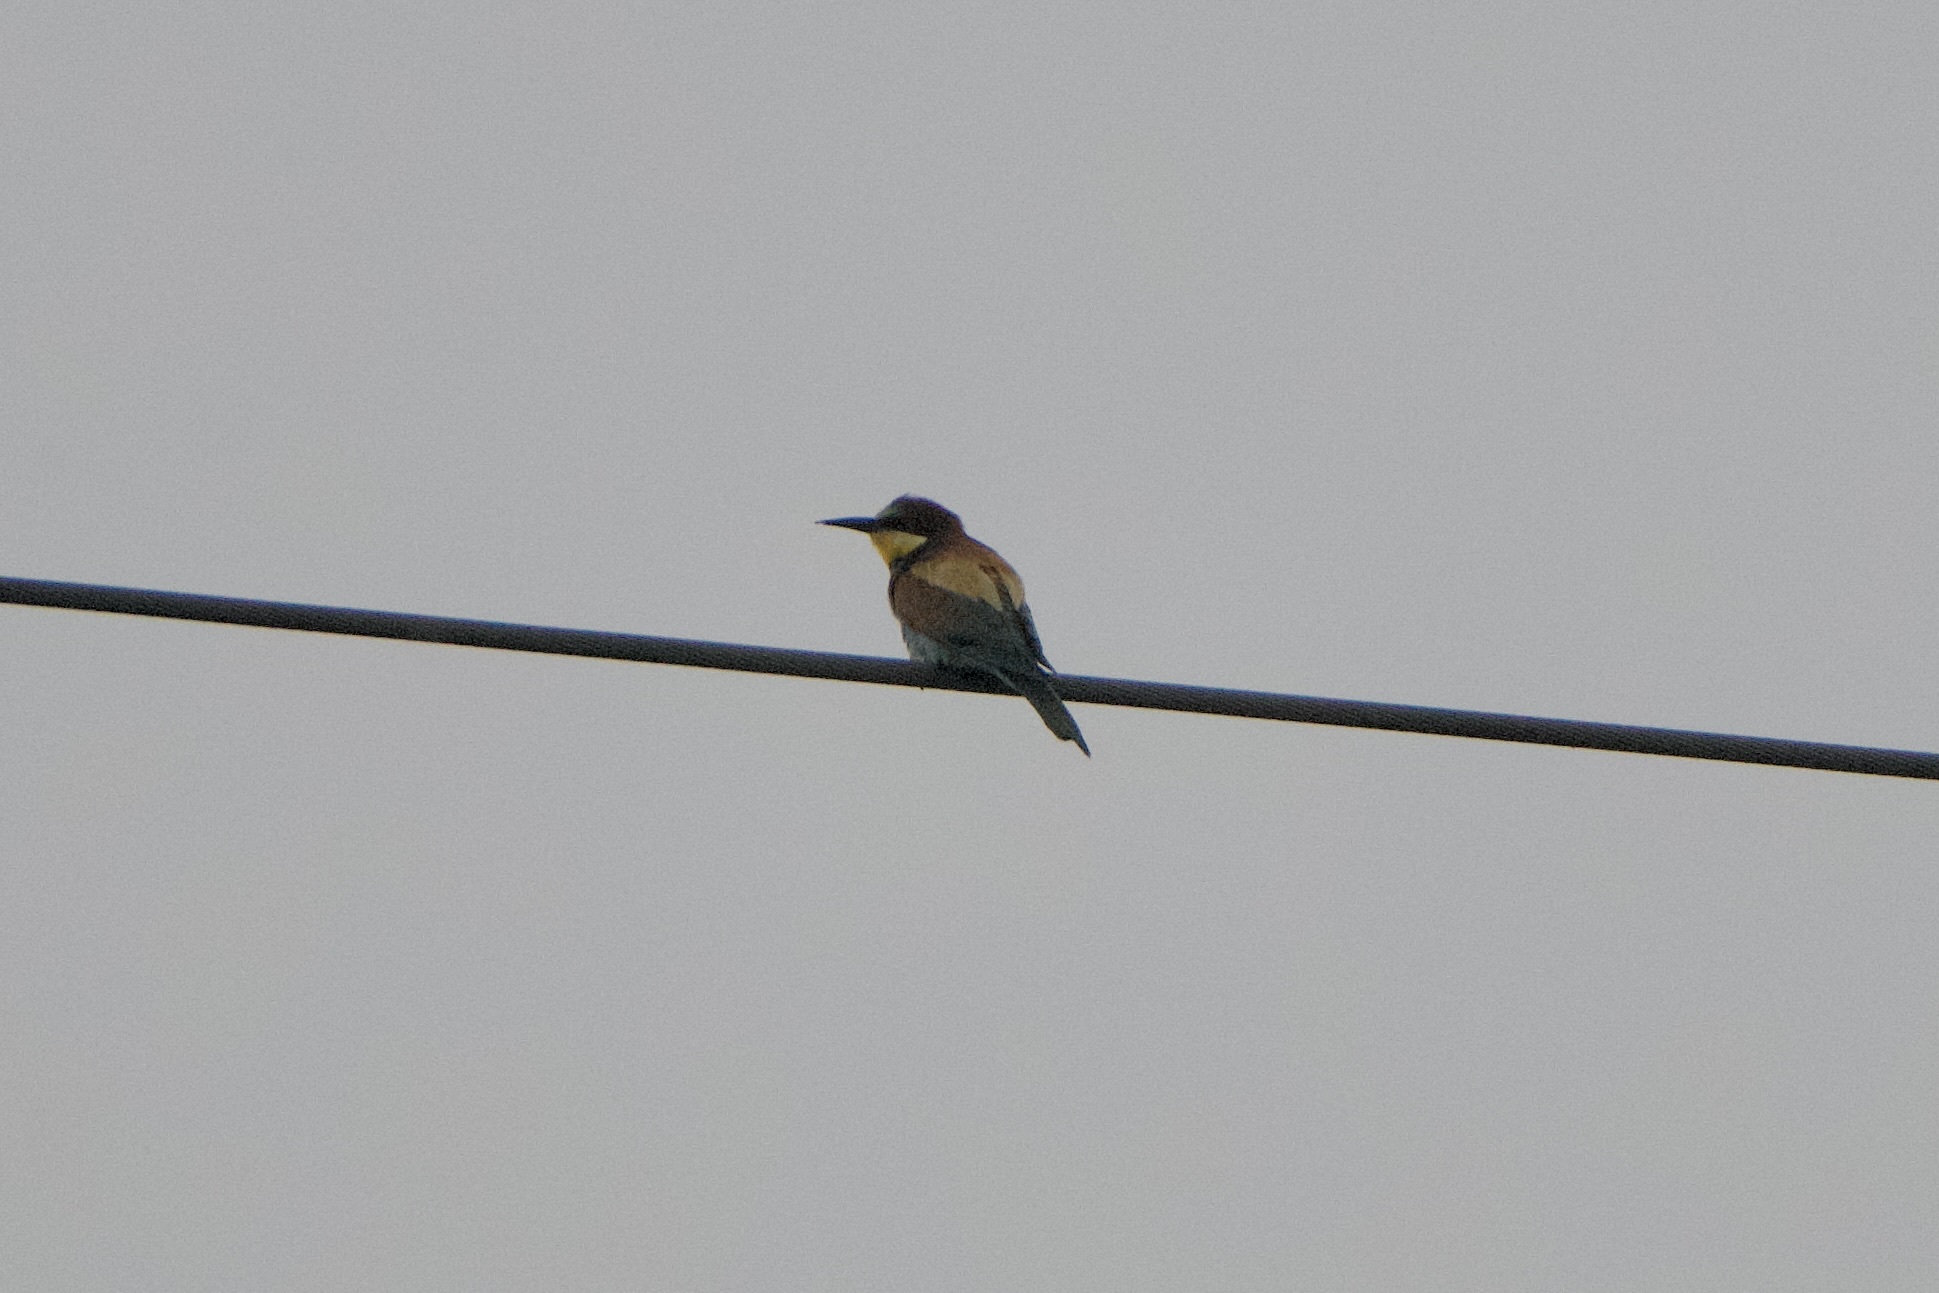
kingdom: Animalia
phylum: Chordata
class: Aves
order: Coraciiformes
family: Meropidae
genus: Merops
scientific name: Merops apiaster
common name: European bee-eater
